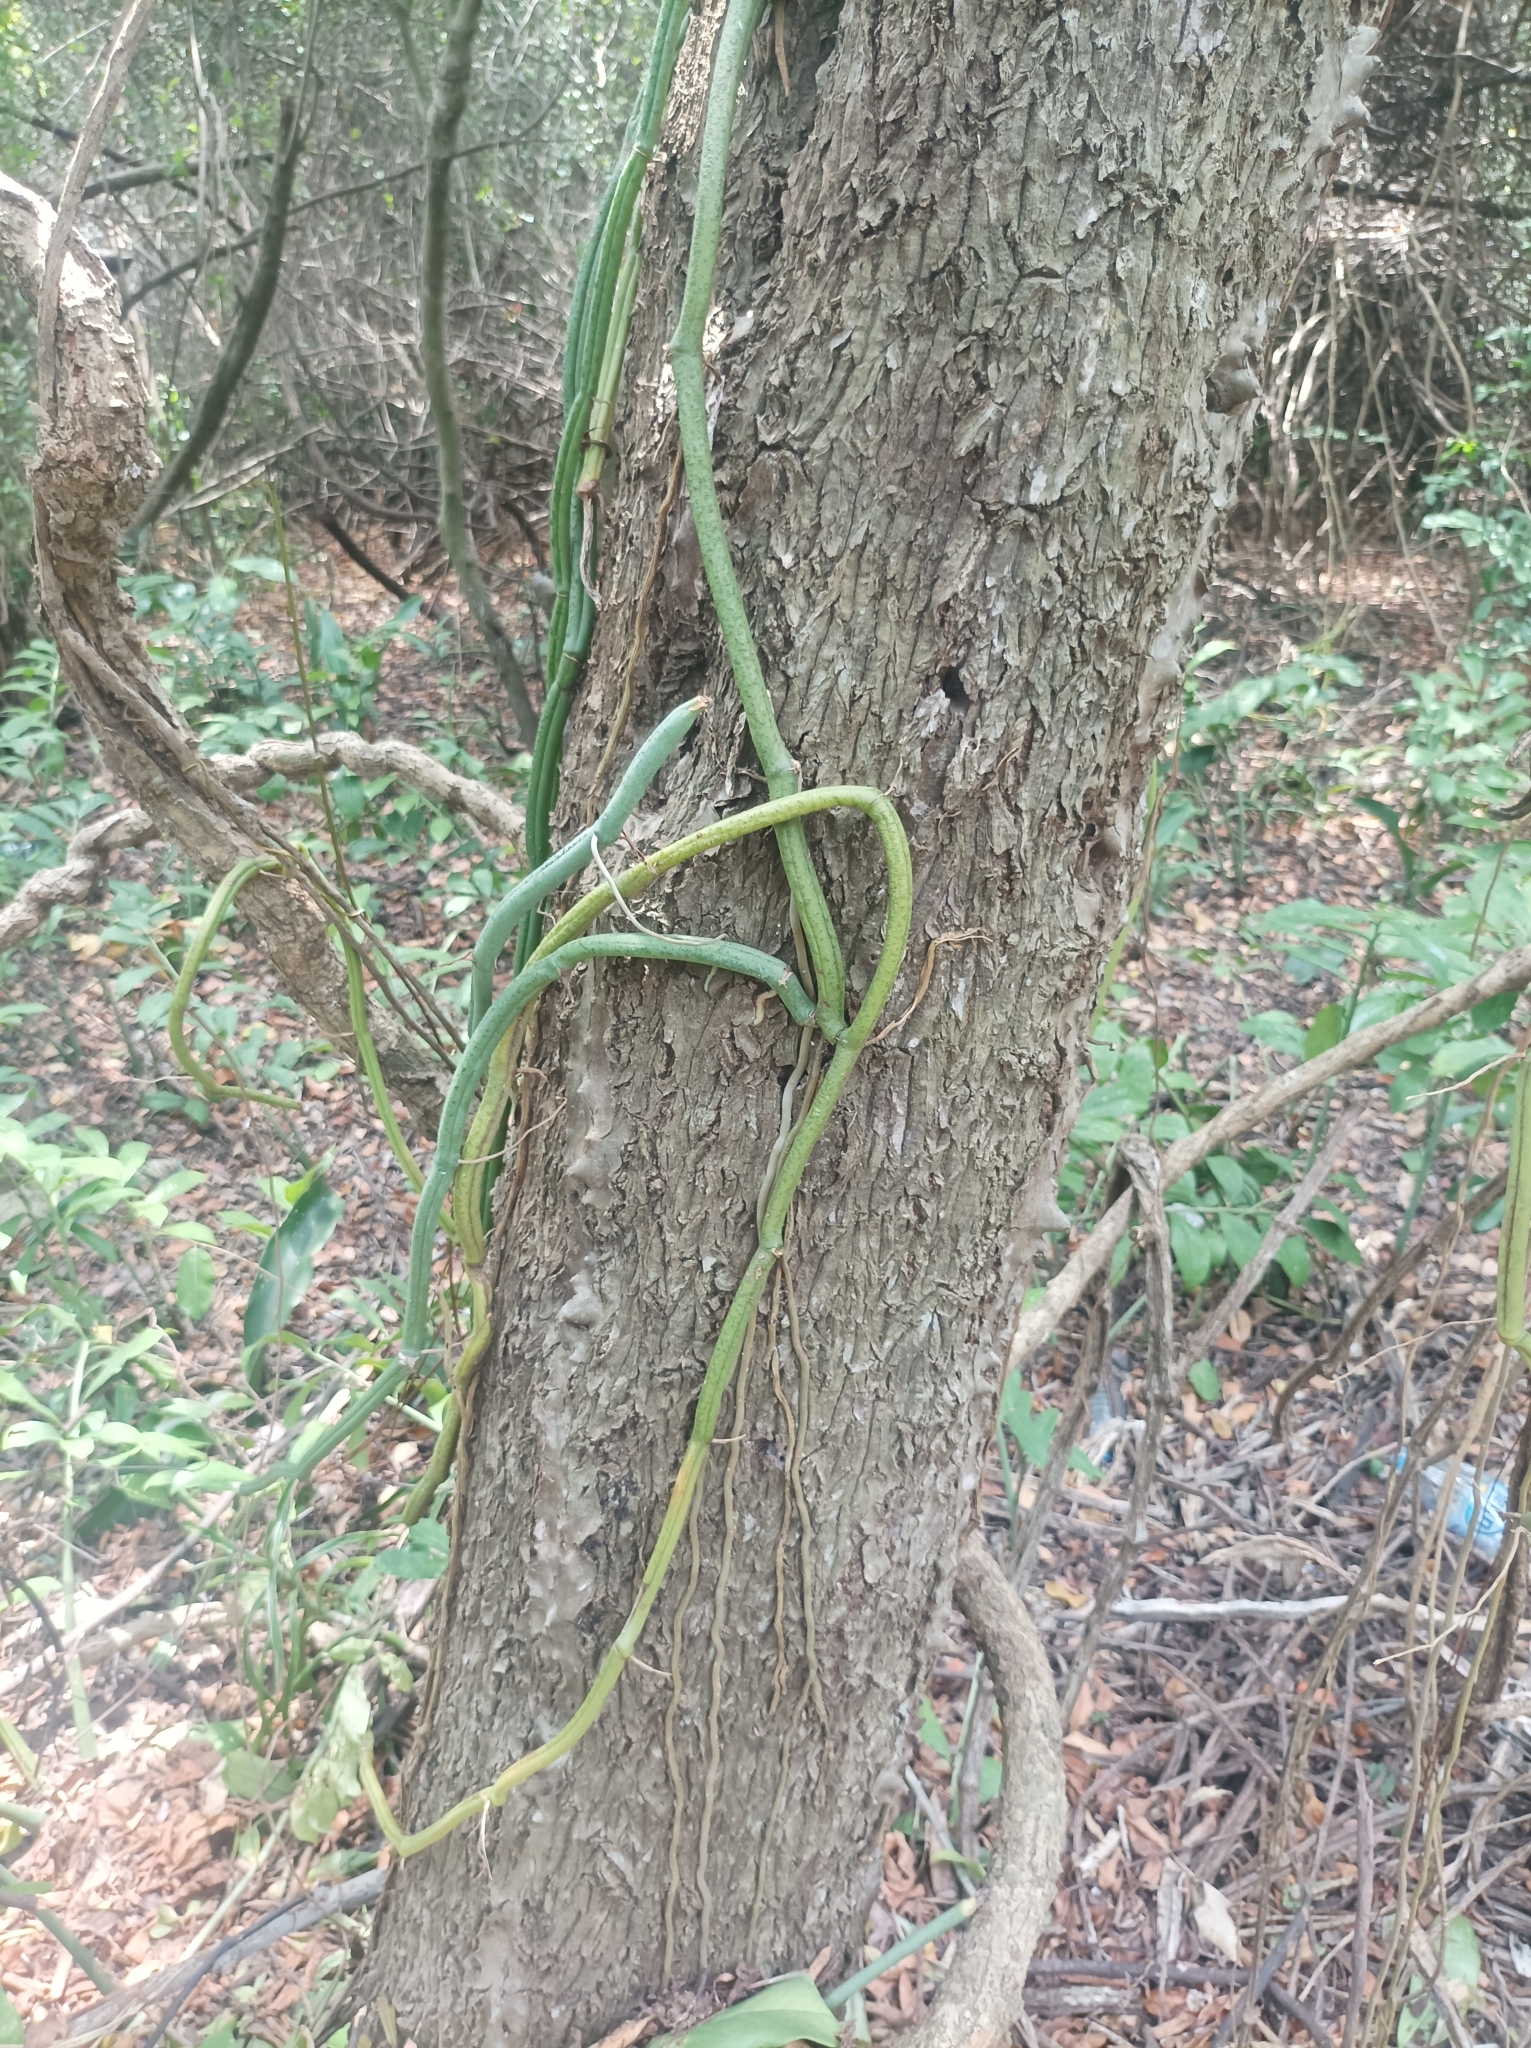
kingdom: Plantae
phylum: Tracheophyta
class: Liliopsida
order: Asparagales
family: Orchidaceae
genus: Vanilla
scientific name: Vanilla roscheri
